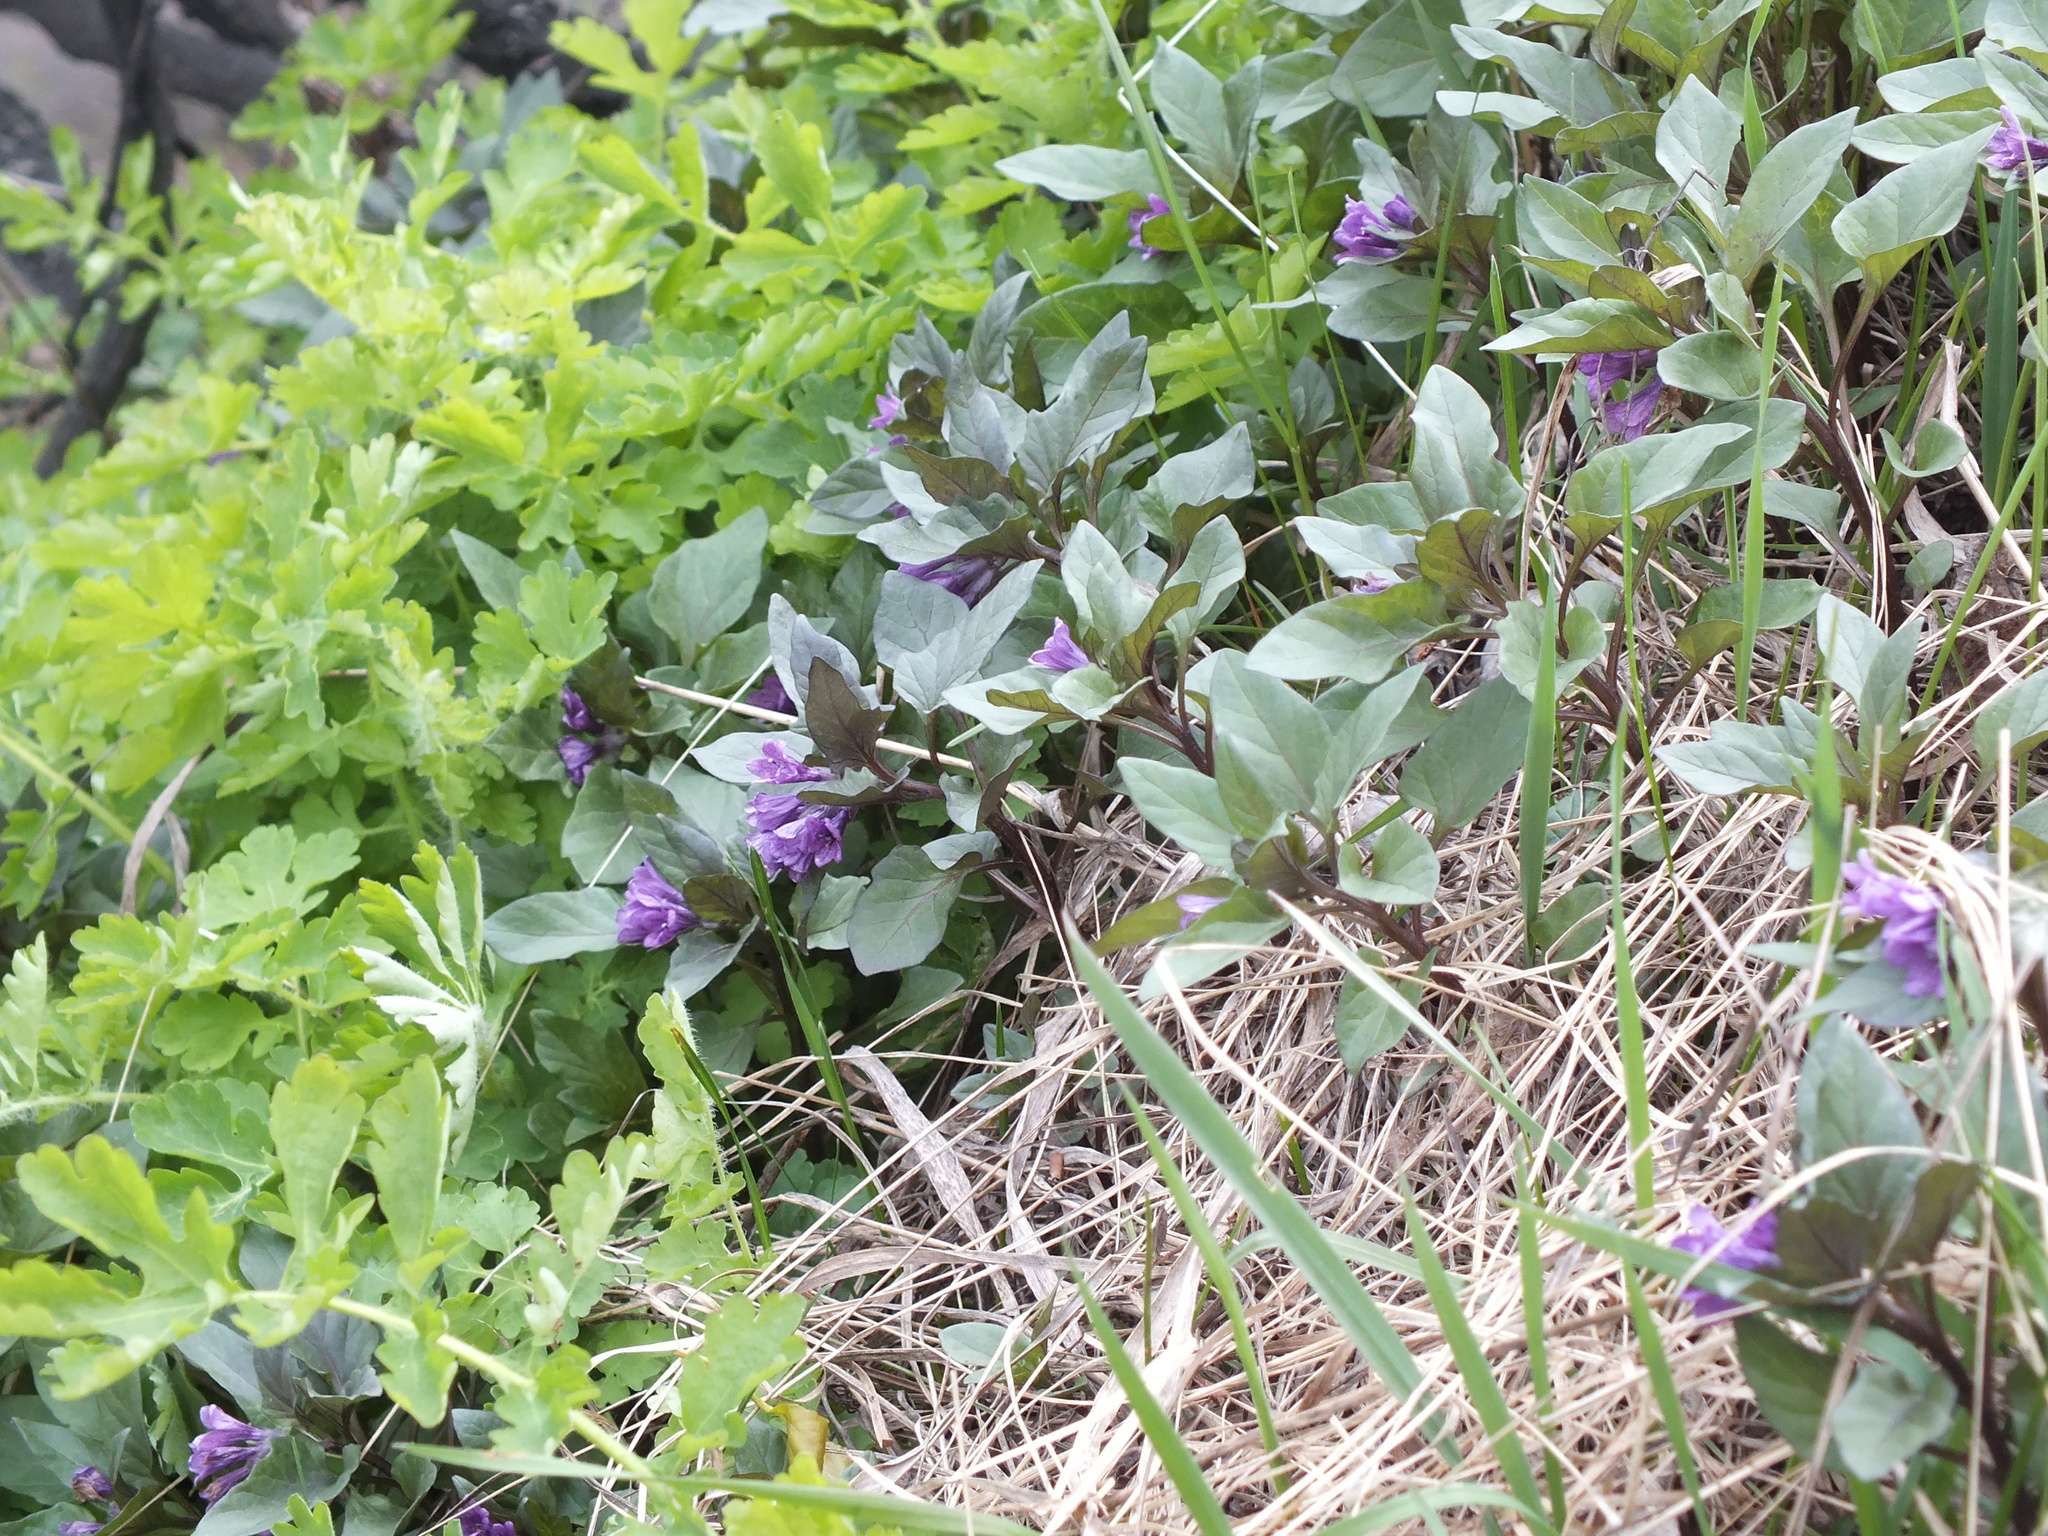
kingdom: Plantae
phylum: Tracheophyta
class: Magnoliopsida
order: Solanales
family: Solanaceae
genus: Physochlaina
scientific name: Physochlaina physaloides
